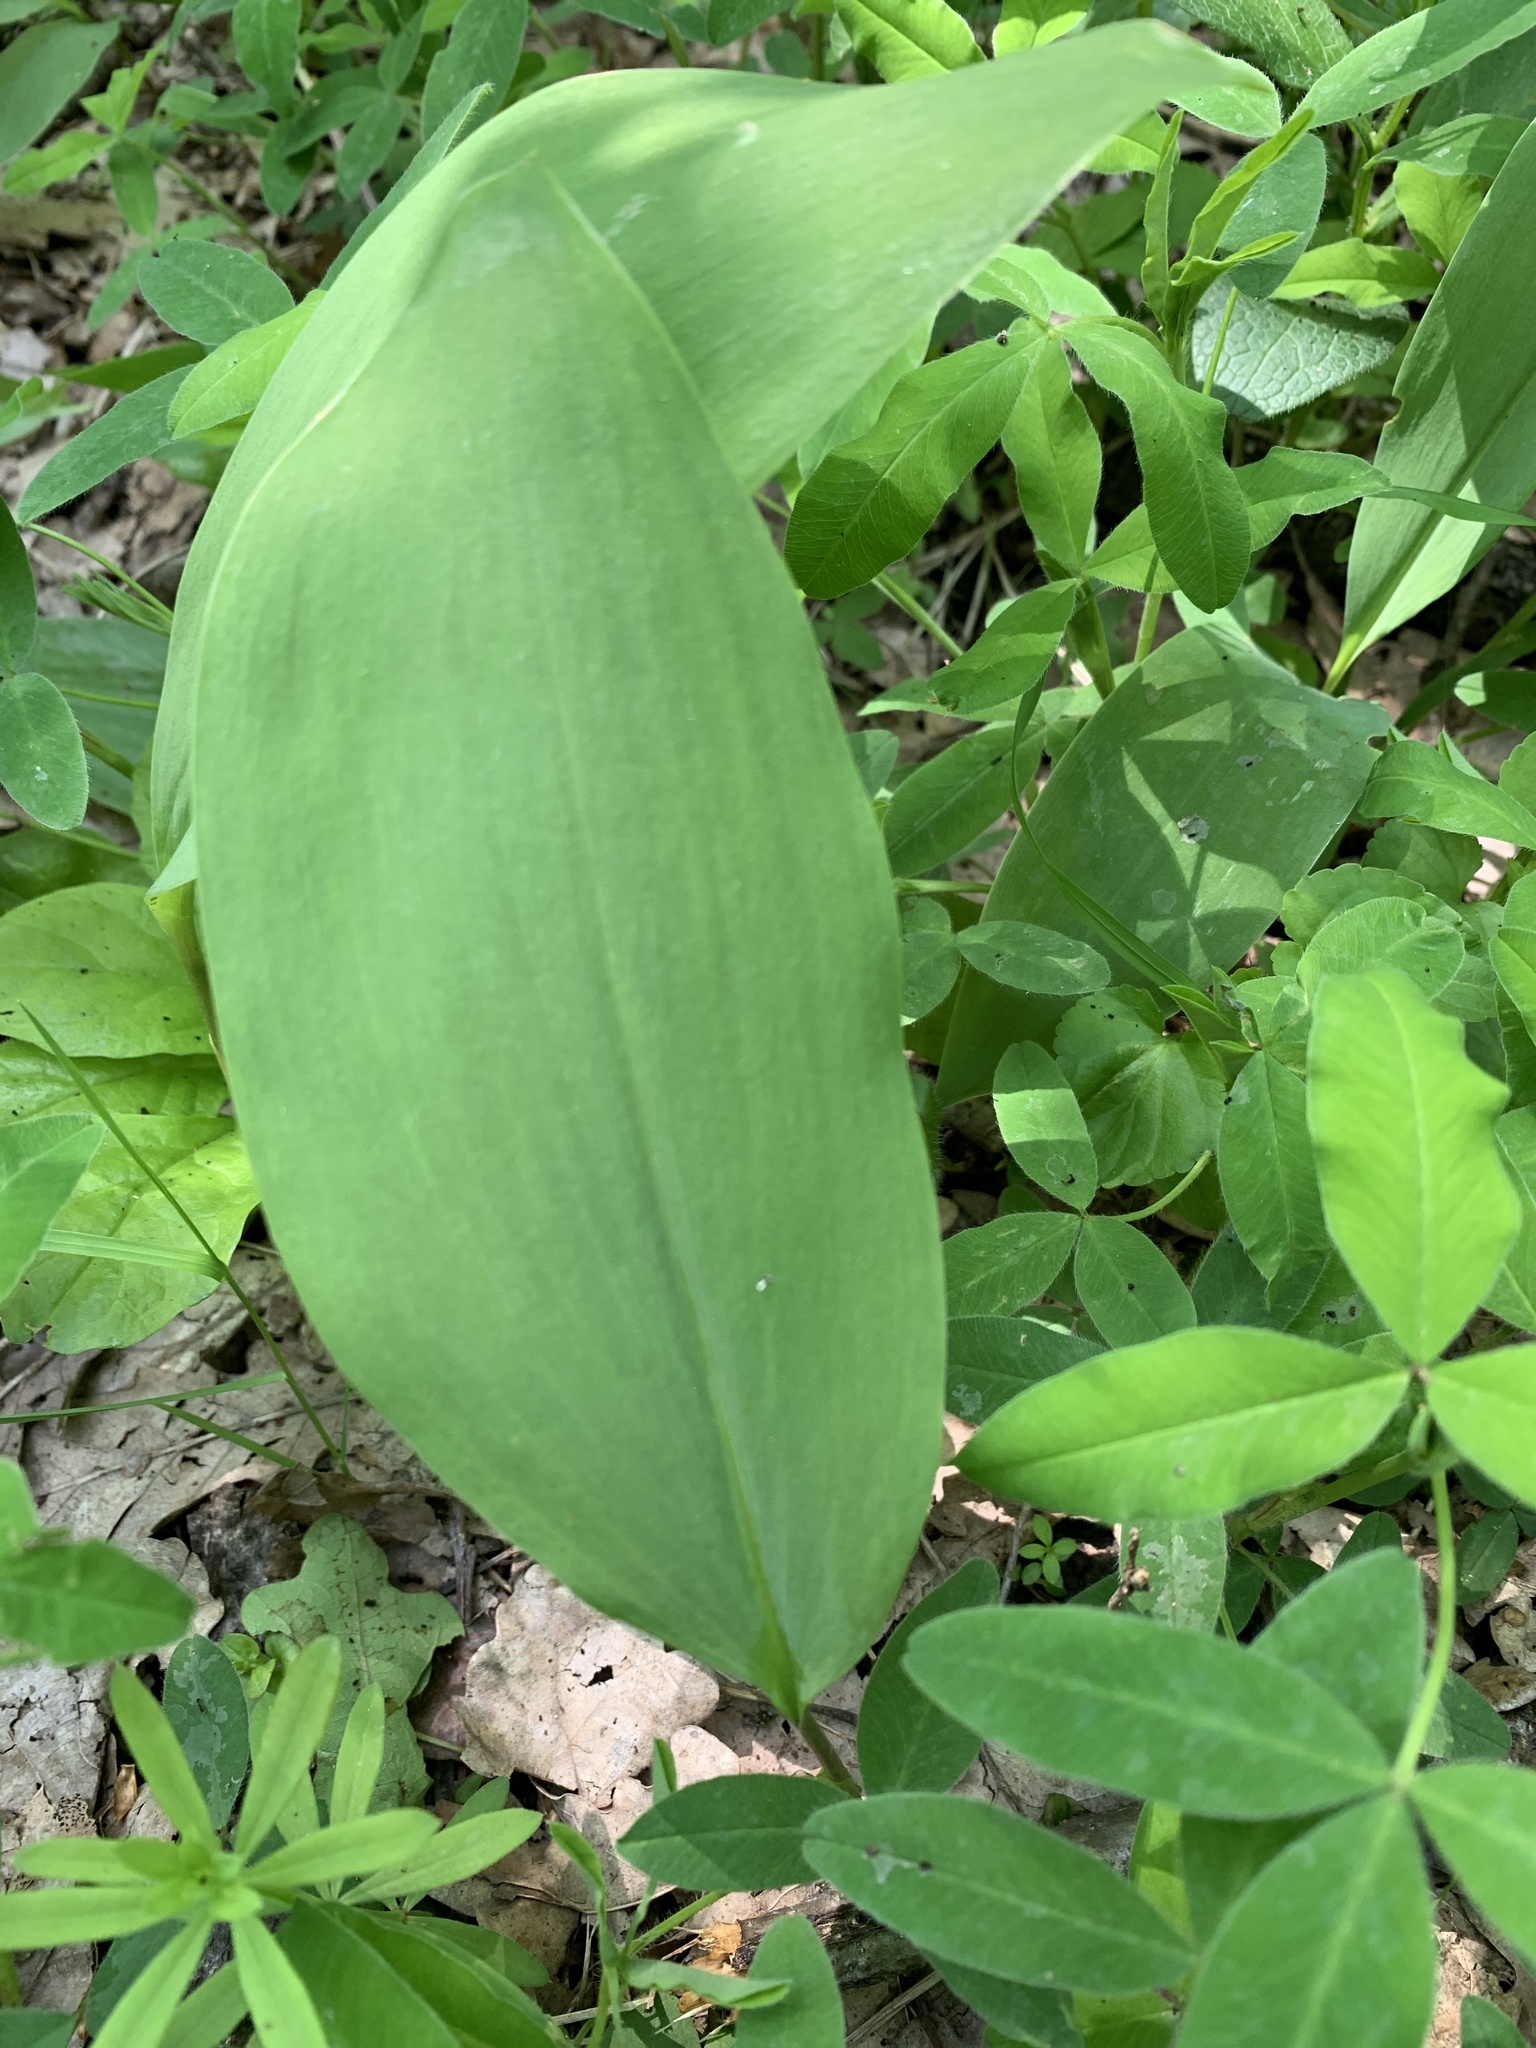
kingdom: Plantae
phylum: Tracheophyta
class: Liliopsida
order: Asparagales
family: Asparagaceae
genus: Convallaria
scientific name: Convallaria majalis
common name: Lily-of-the-valley
